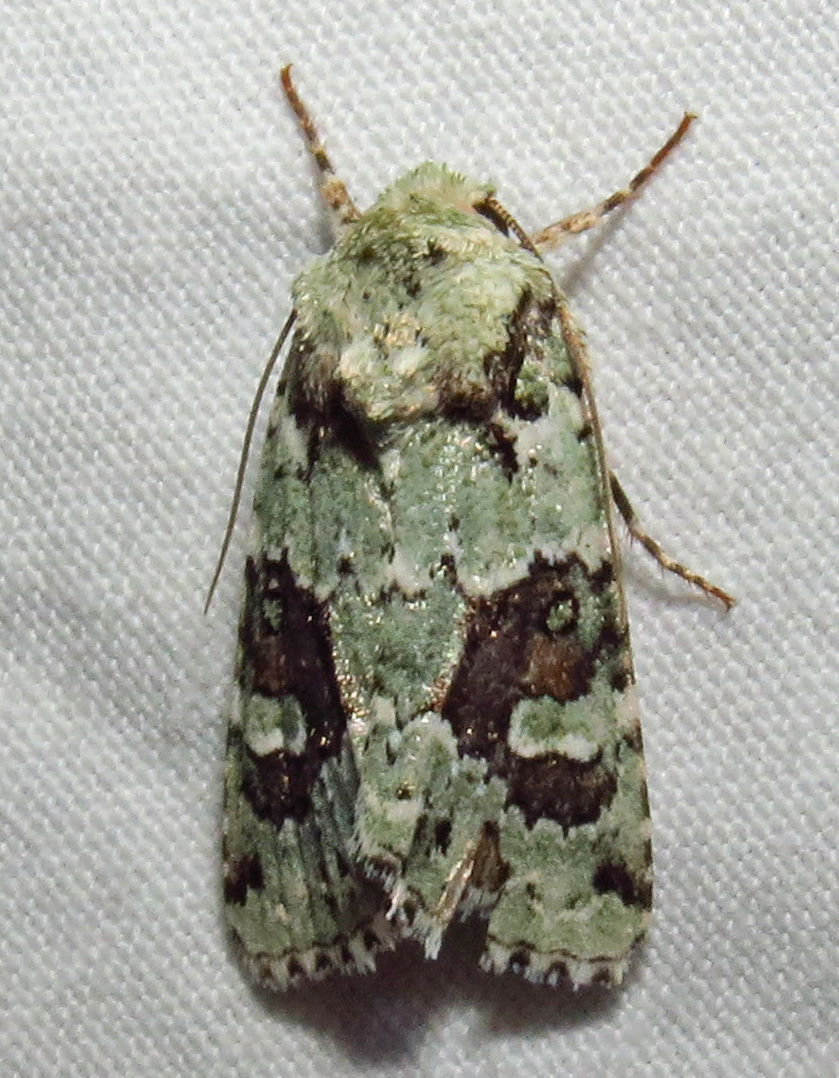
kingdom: Animalia
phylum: Arthropoda
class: Insecta
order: Lepidoptera
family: Noctuidae
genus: Lacinipolia
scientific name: Lacinipolia laudabilis
